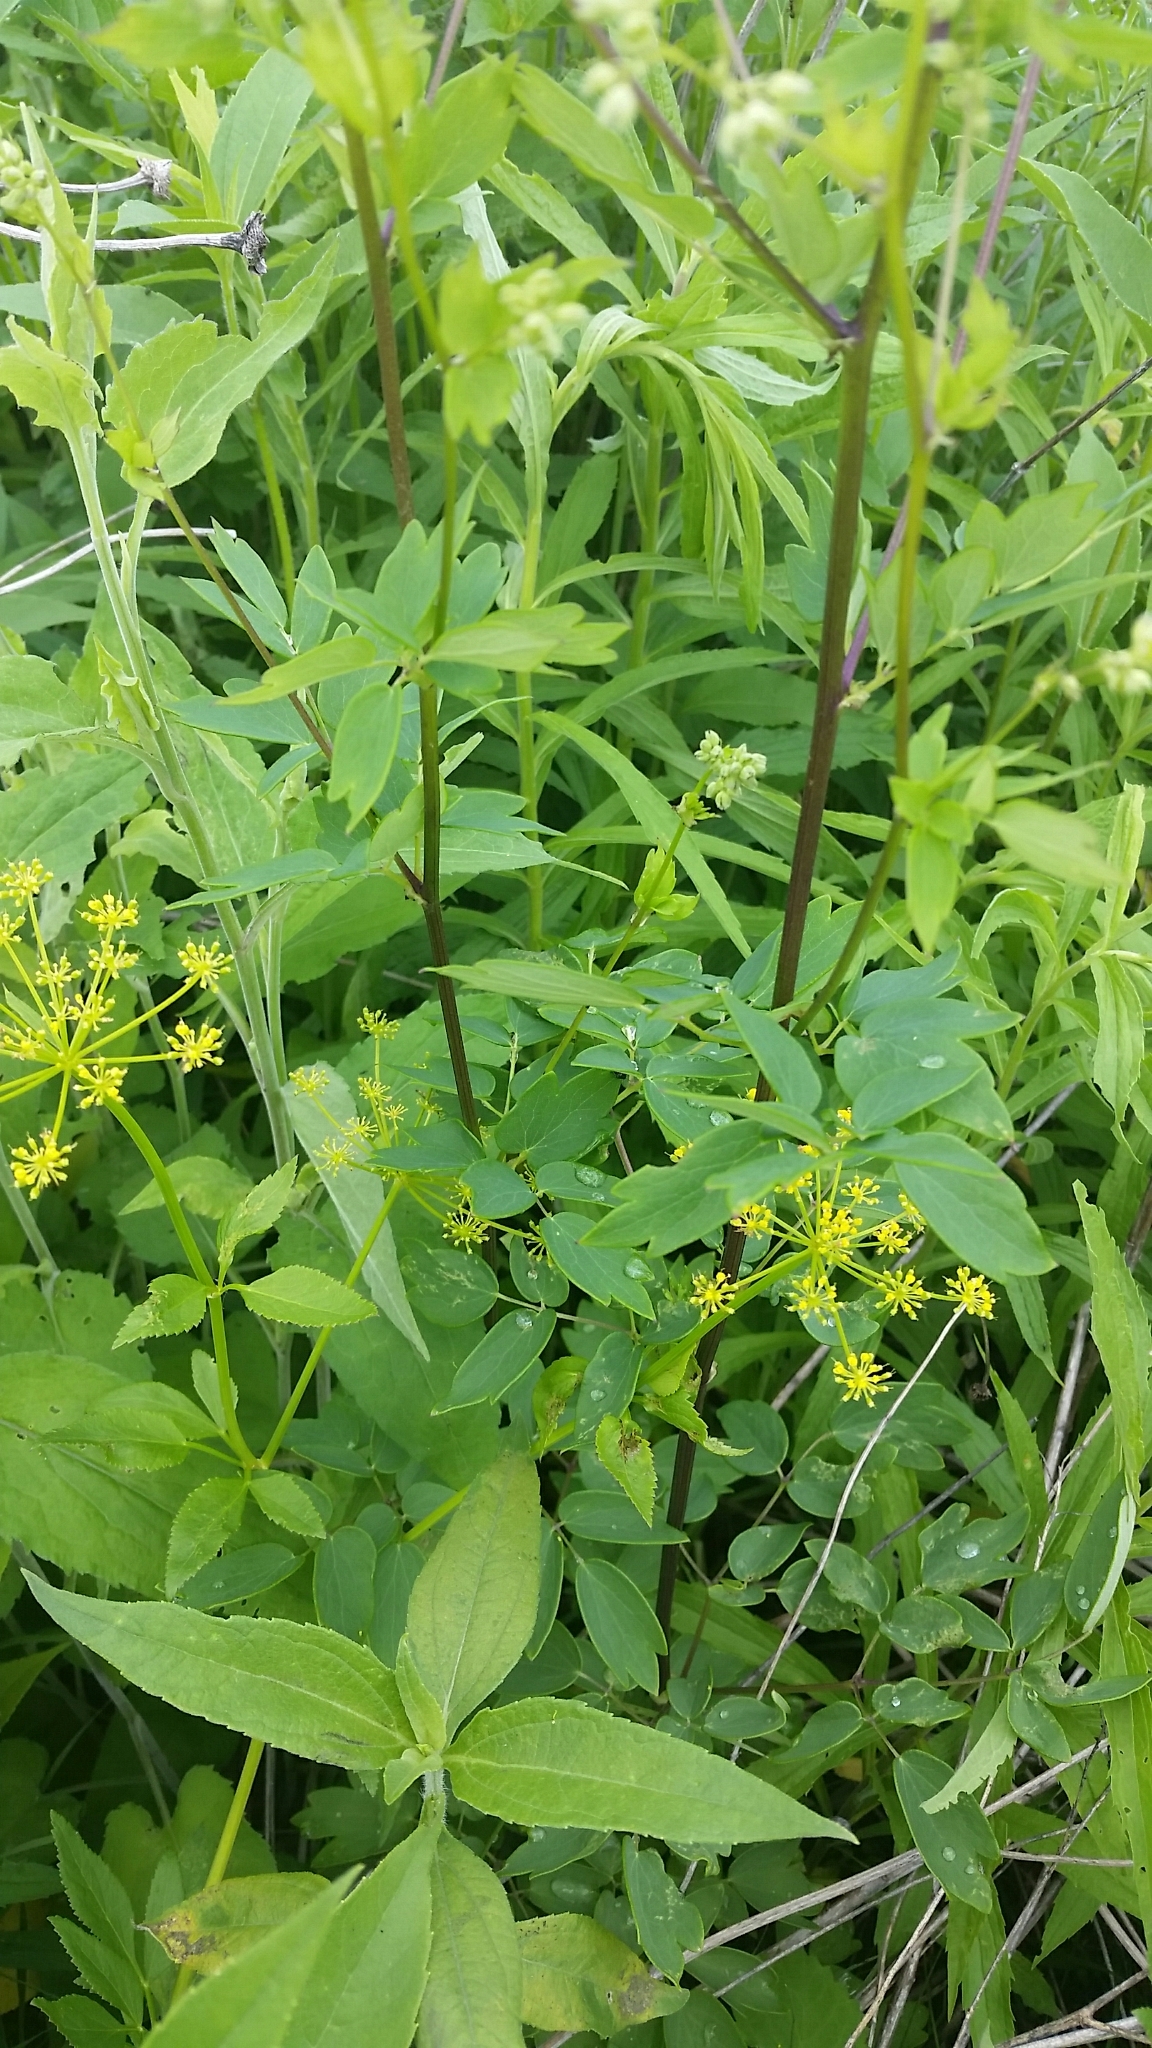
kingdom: Plantae
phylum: Tracheophyta
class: Magnoliopsida
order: Ranunculales
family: Ranunculaceae
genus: Thalictrum
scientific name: Thalictrum dasycarpum
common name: Purple meadow-rue
